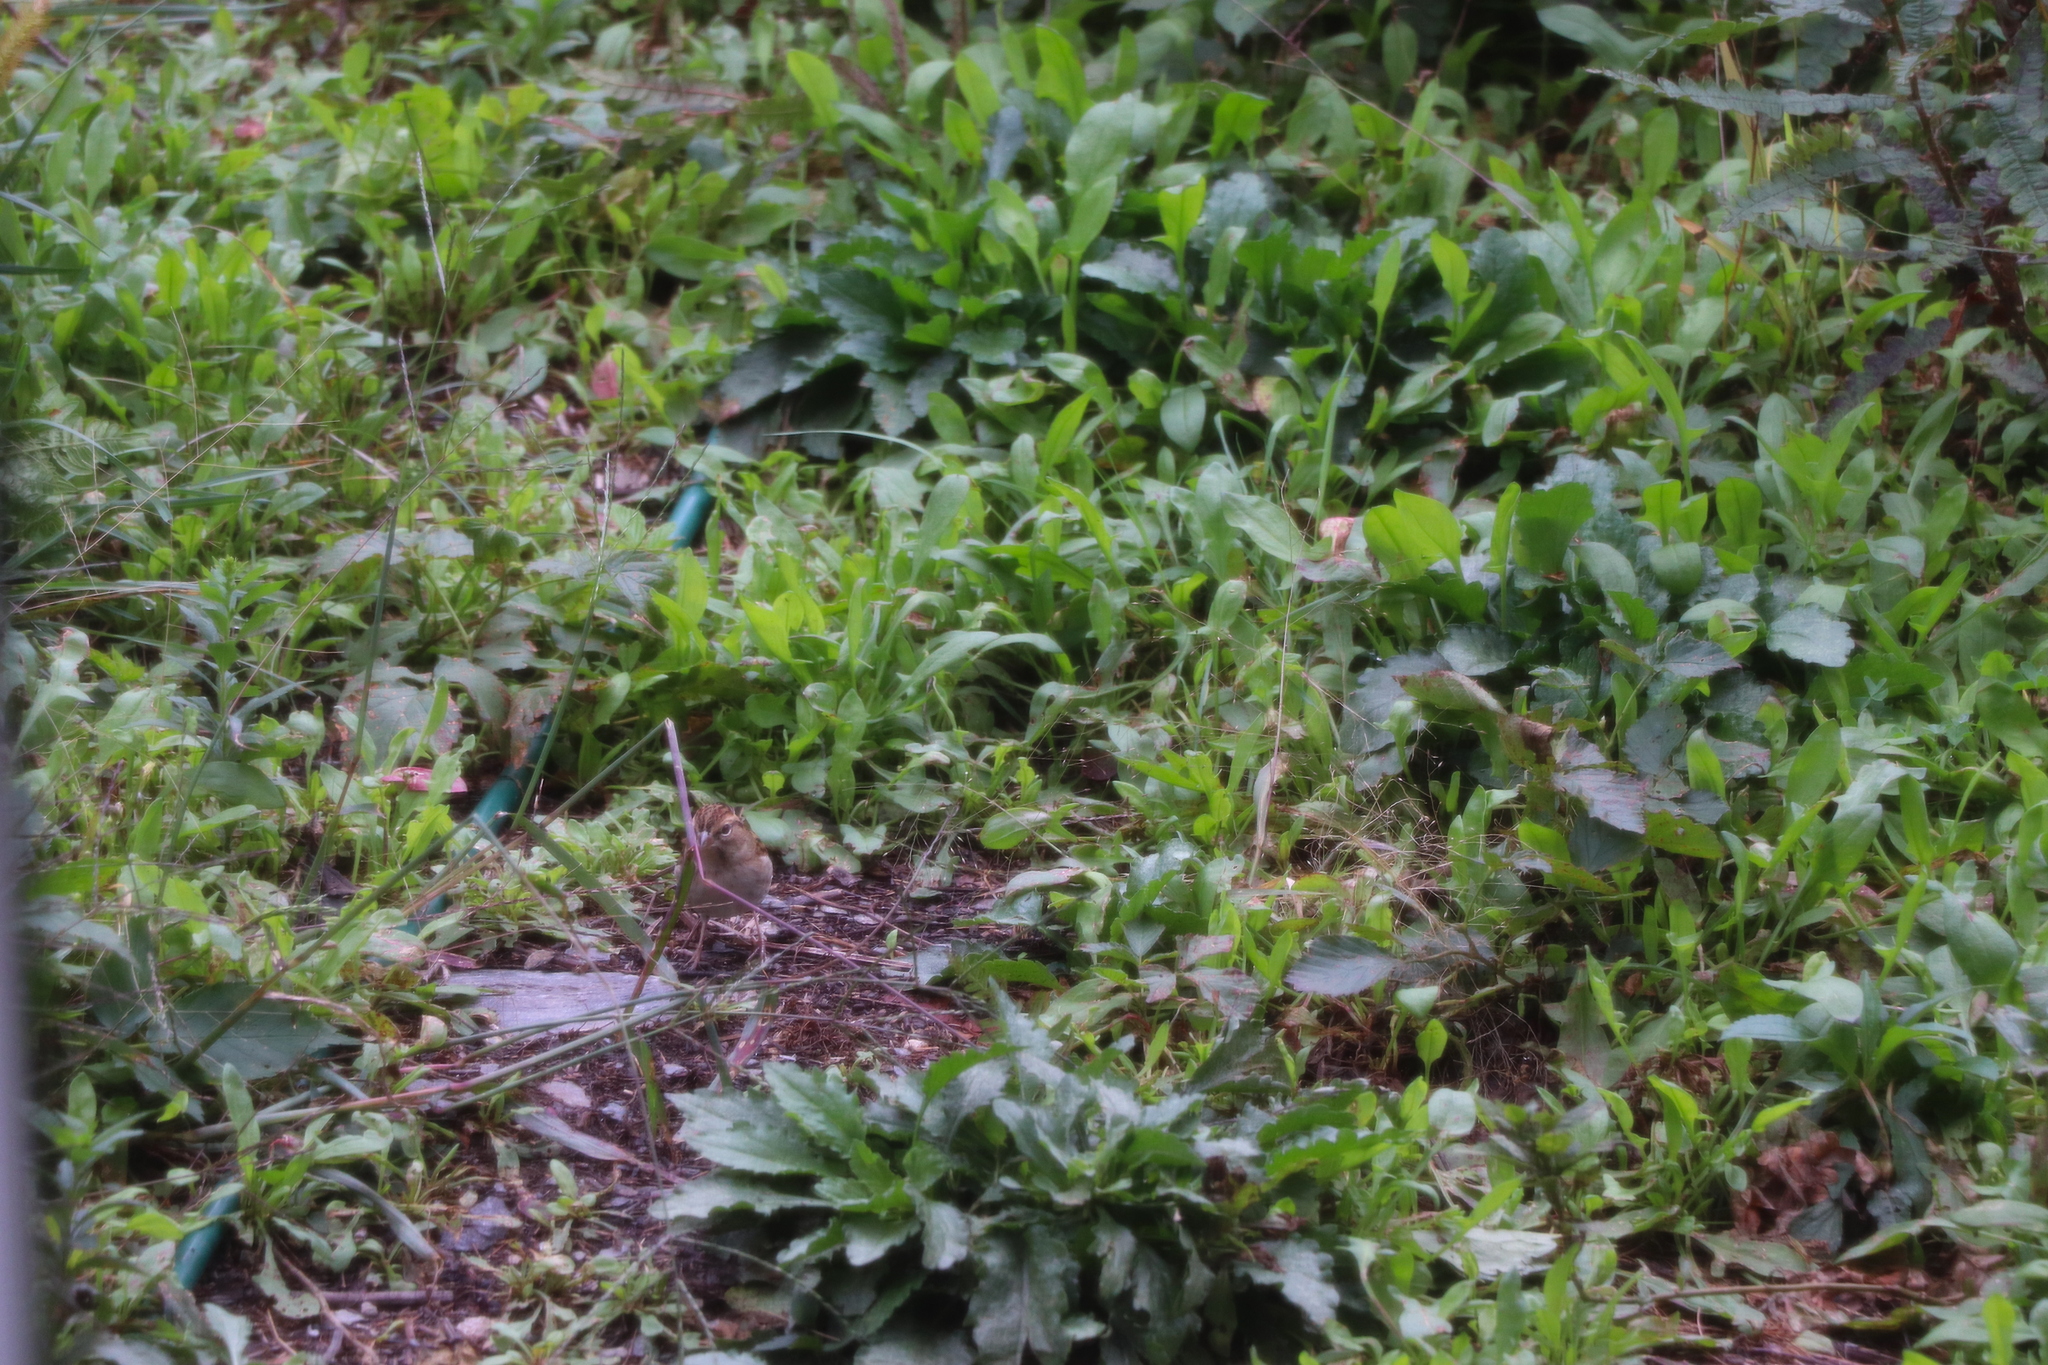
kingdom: Animalia
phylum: Chordata
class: Aves
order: Passeriformes
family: Passerellidae
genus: Spizella
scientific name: Spizella passerina
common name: Chipping sparrow
